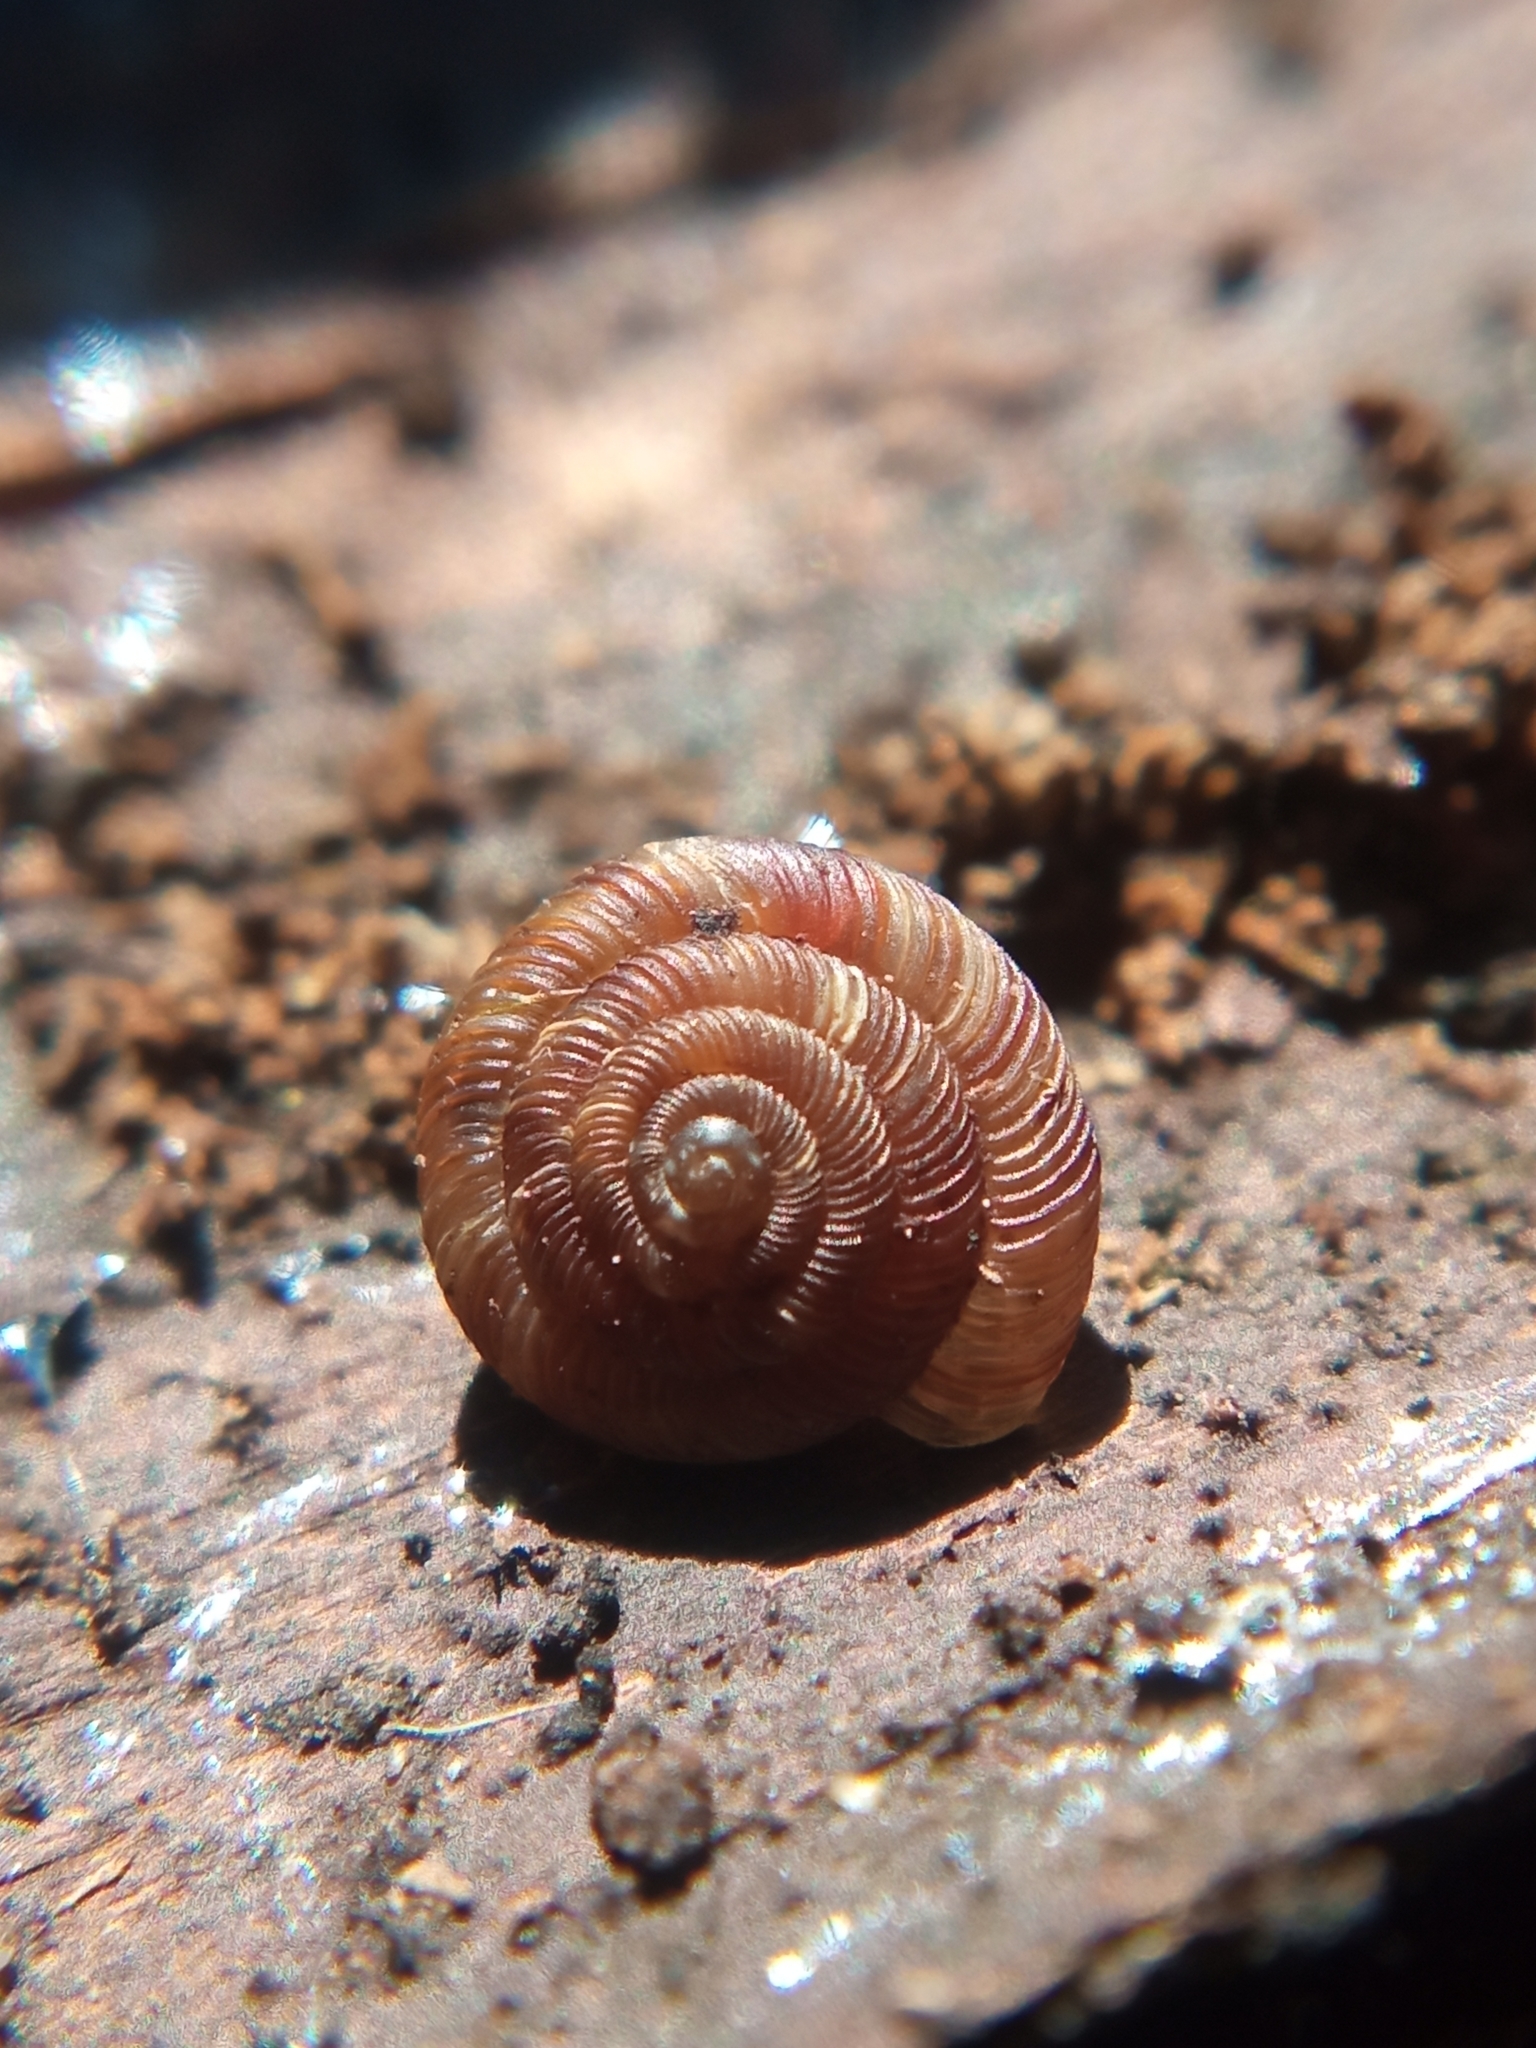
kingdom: Animalia
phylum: Mollusca
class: Gastropoda
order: Stylommatophora
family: Discidae
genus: Discus
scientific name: Discus rotundatus
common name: Rounded snail
